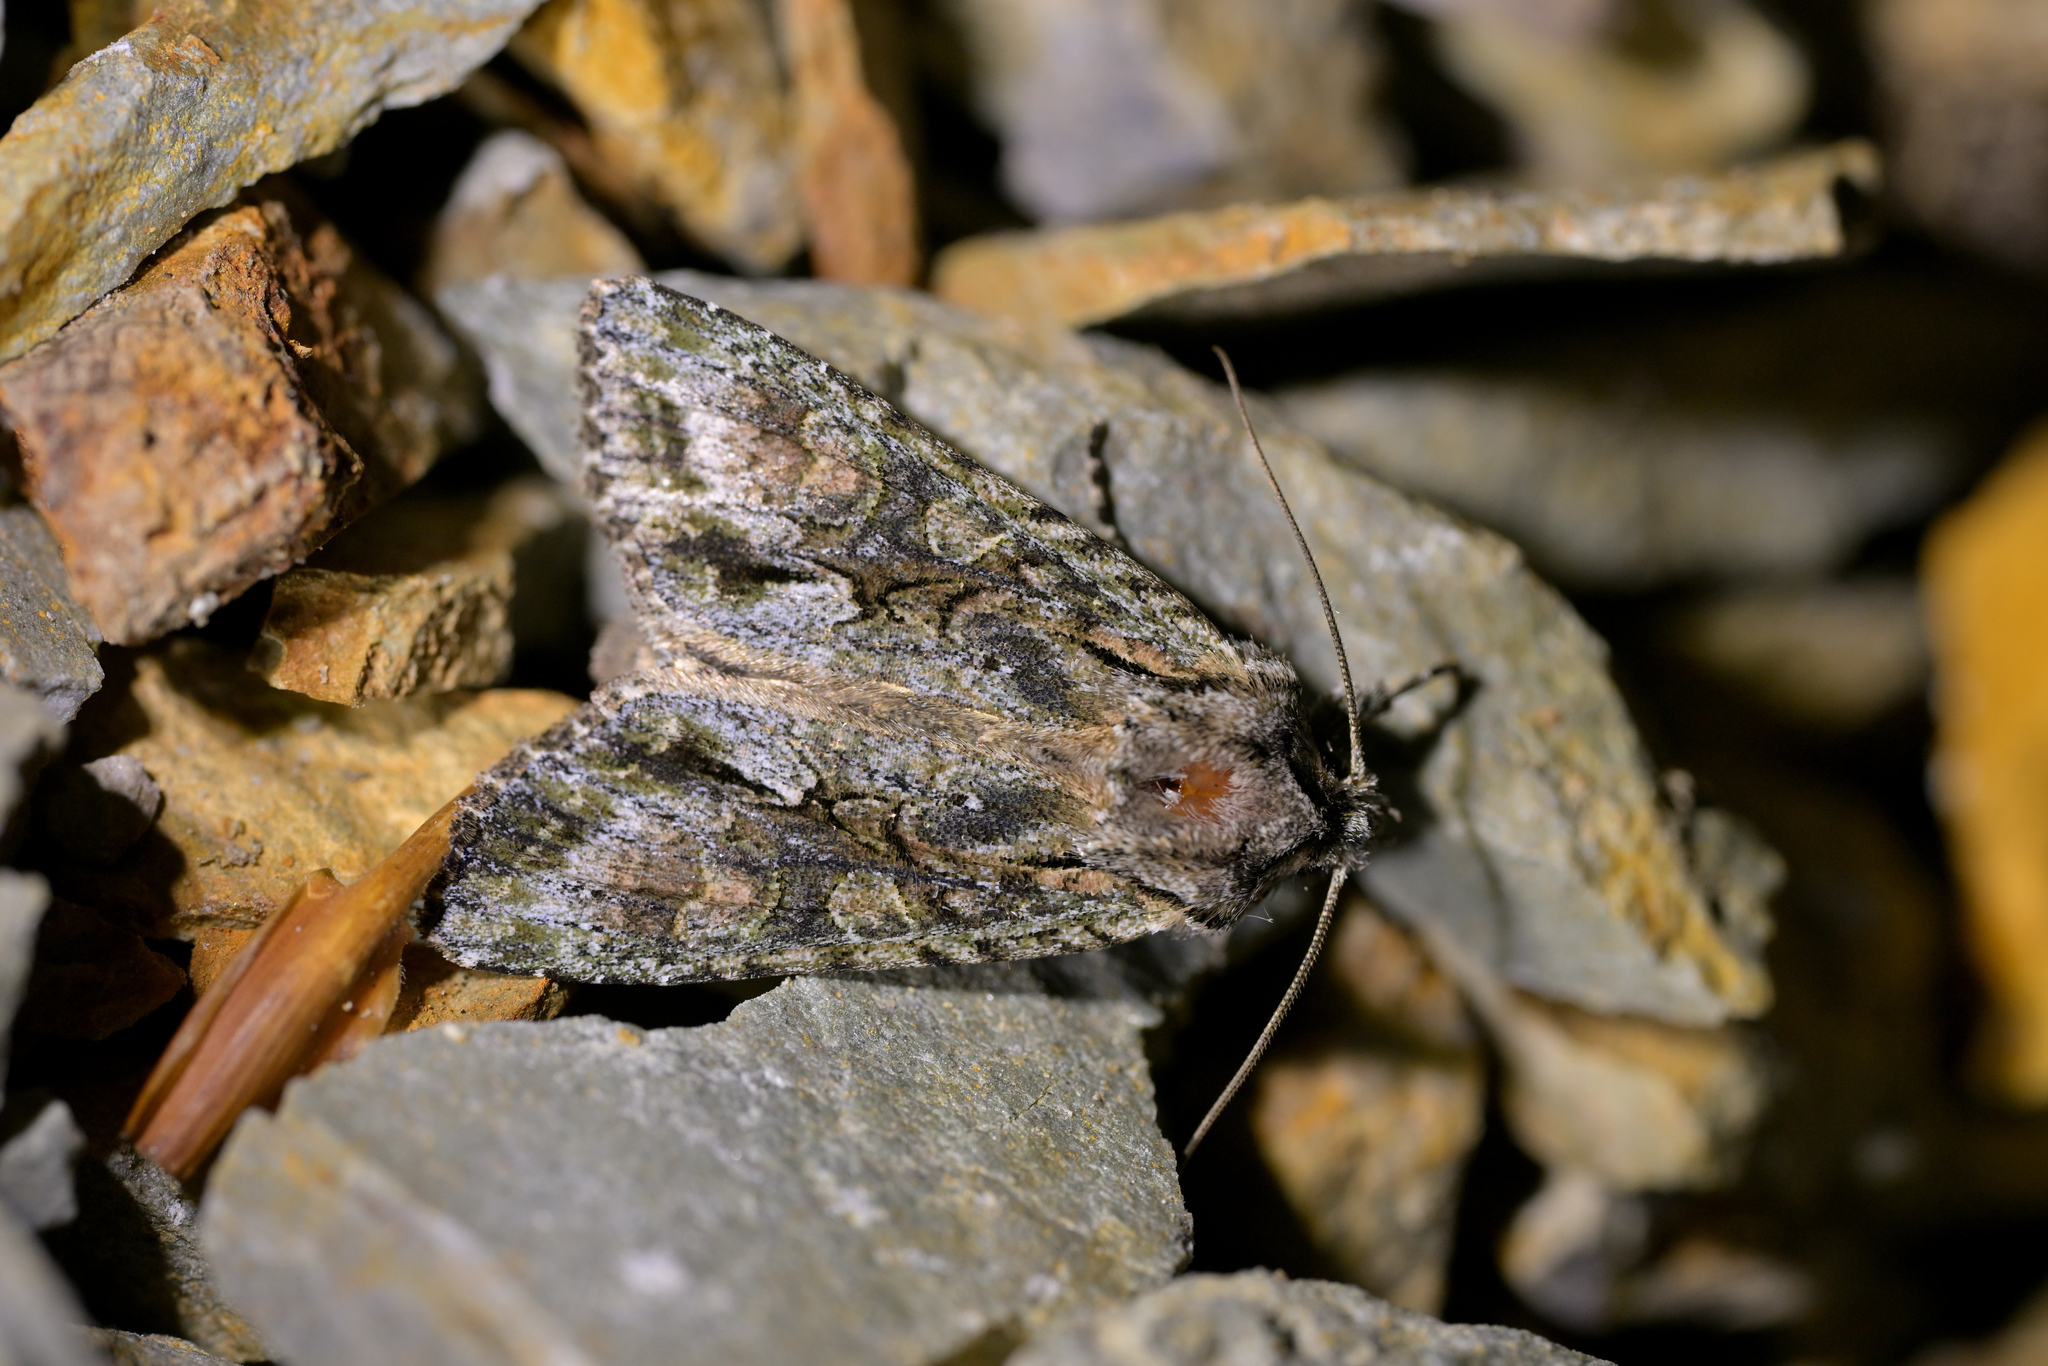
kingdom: Animalia
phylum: Arthropoda
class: Insecta
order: Lepidoptera
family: Noctuidae
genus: Ichneutica
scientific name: Ichneutica mutans
